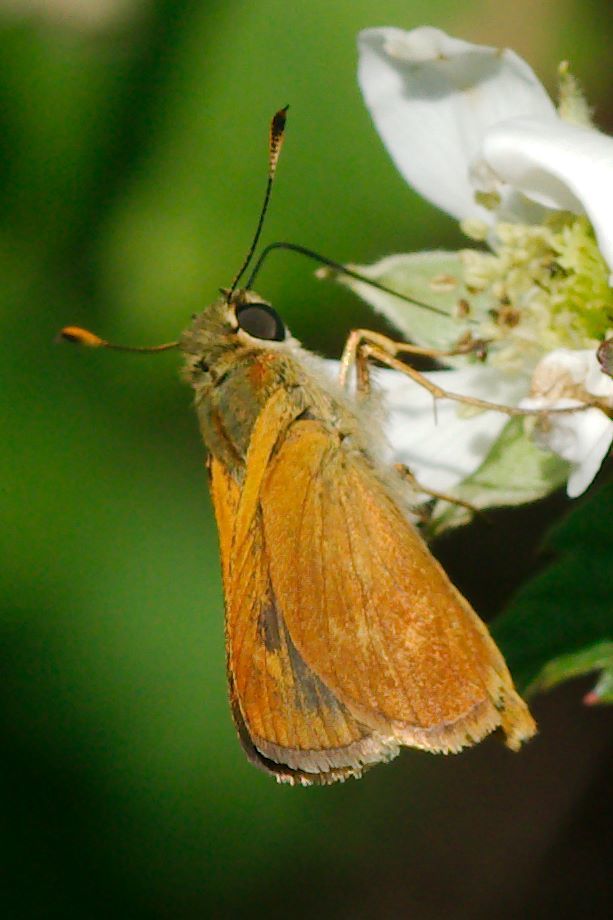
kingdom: Animalia
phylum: Arthropoda
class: Insecta
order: Lepidoptera
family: Hesperiidae
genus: Polites
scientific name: Polites otho
